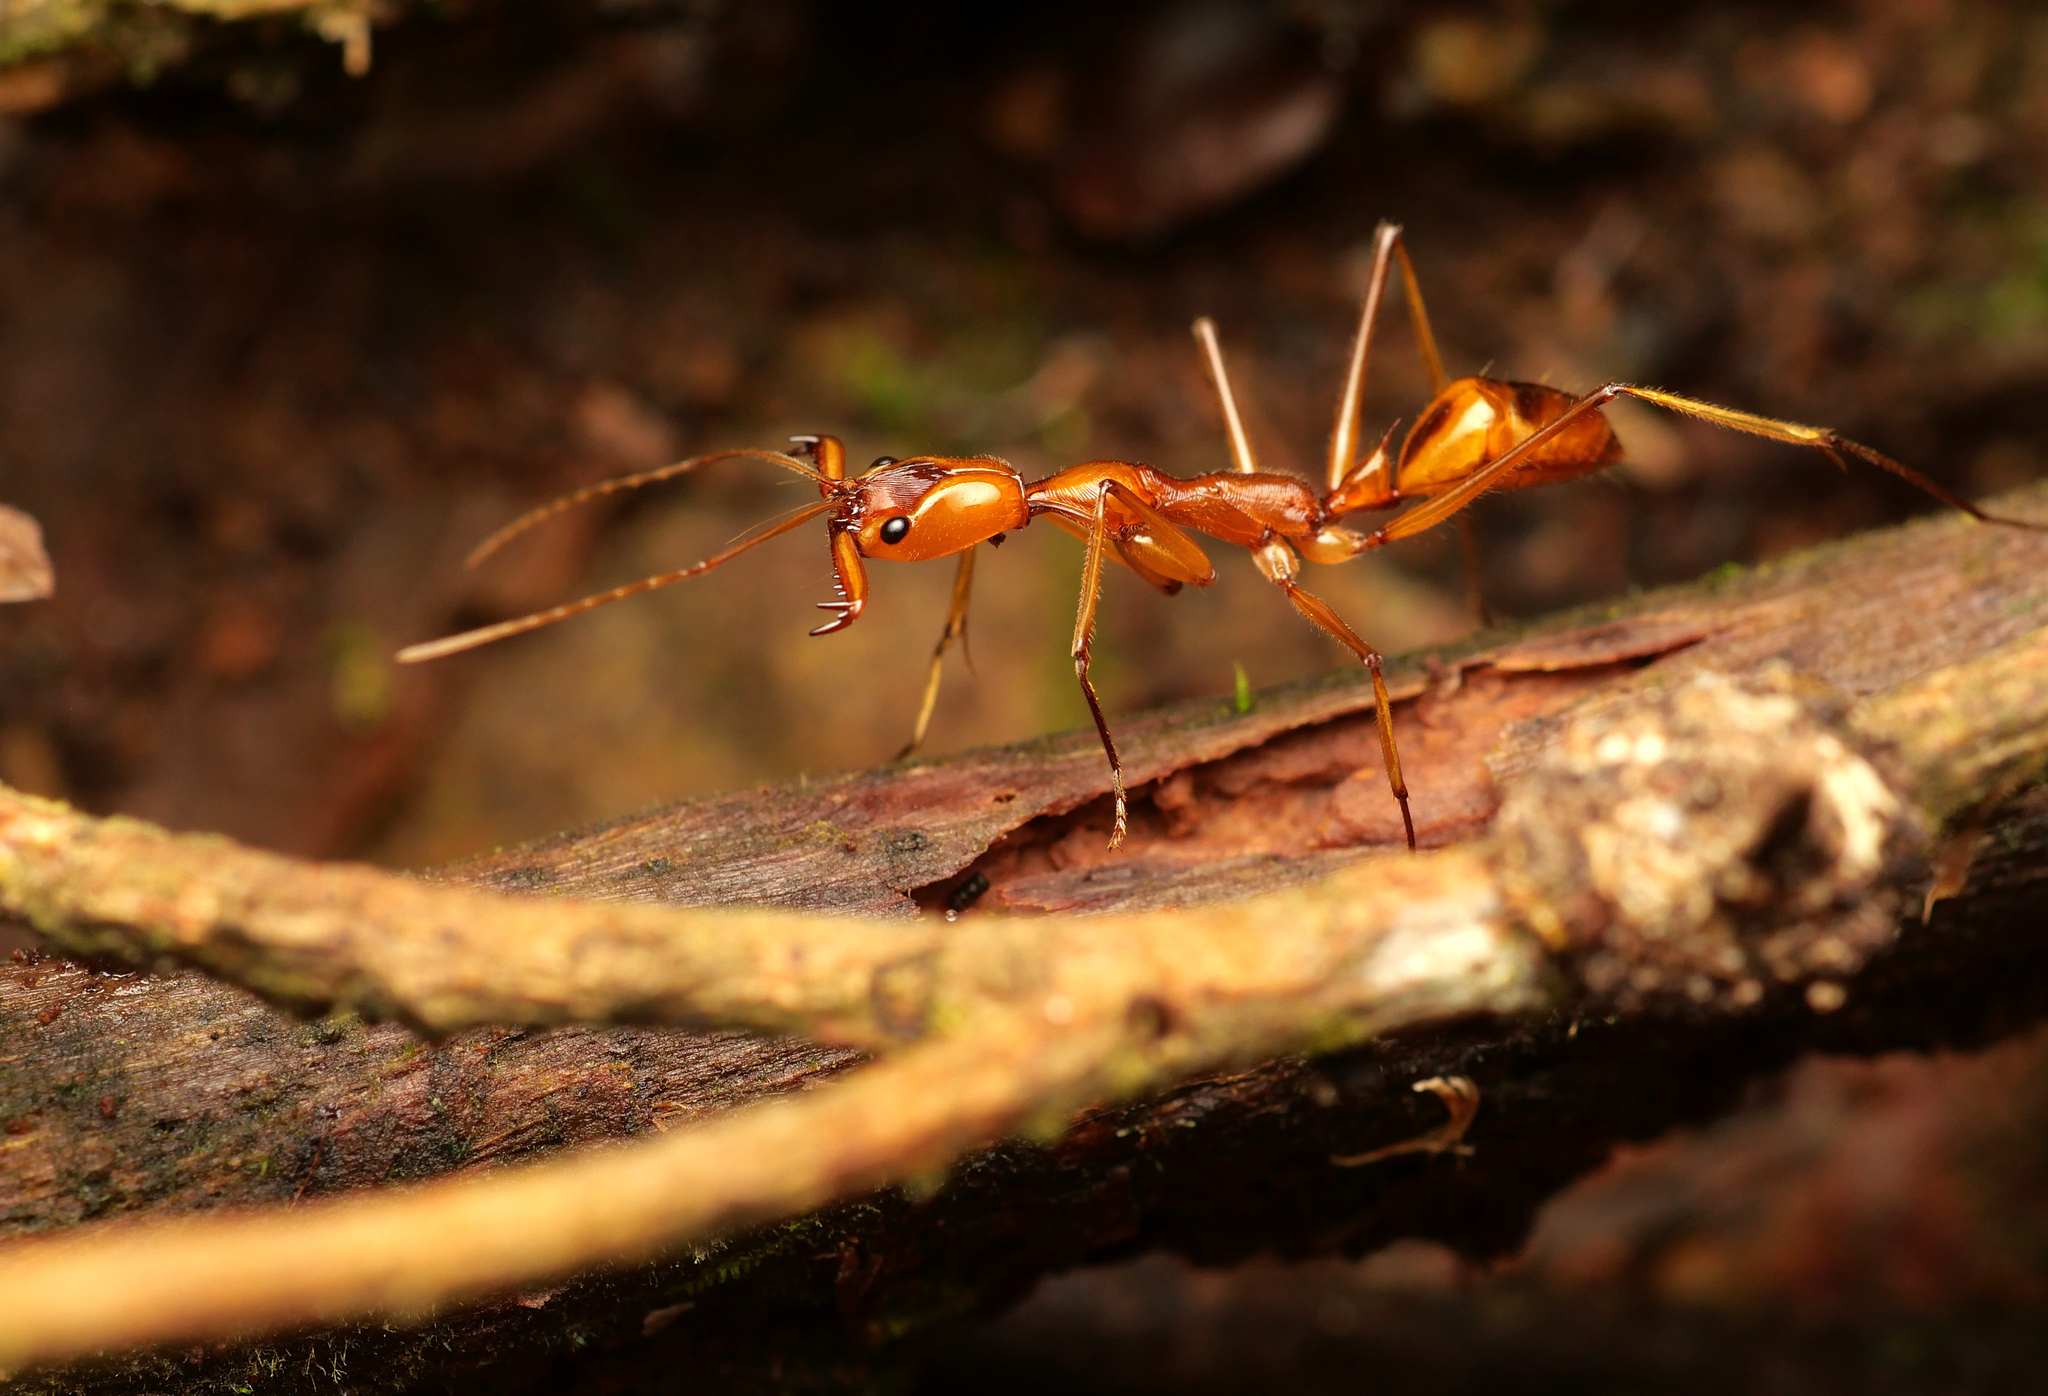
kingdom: Animalia
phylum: Arthropoda
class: Insecta
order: Hymenoptera
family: Formicidae
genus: Odontomachus
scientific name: Odontomachus testaceus
